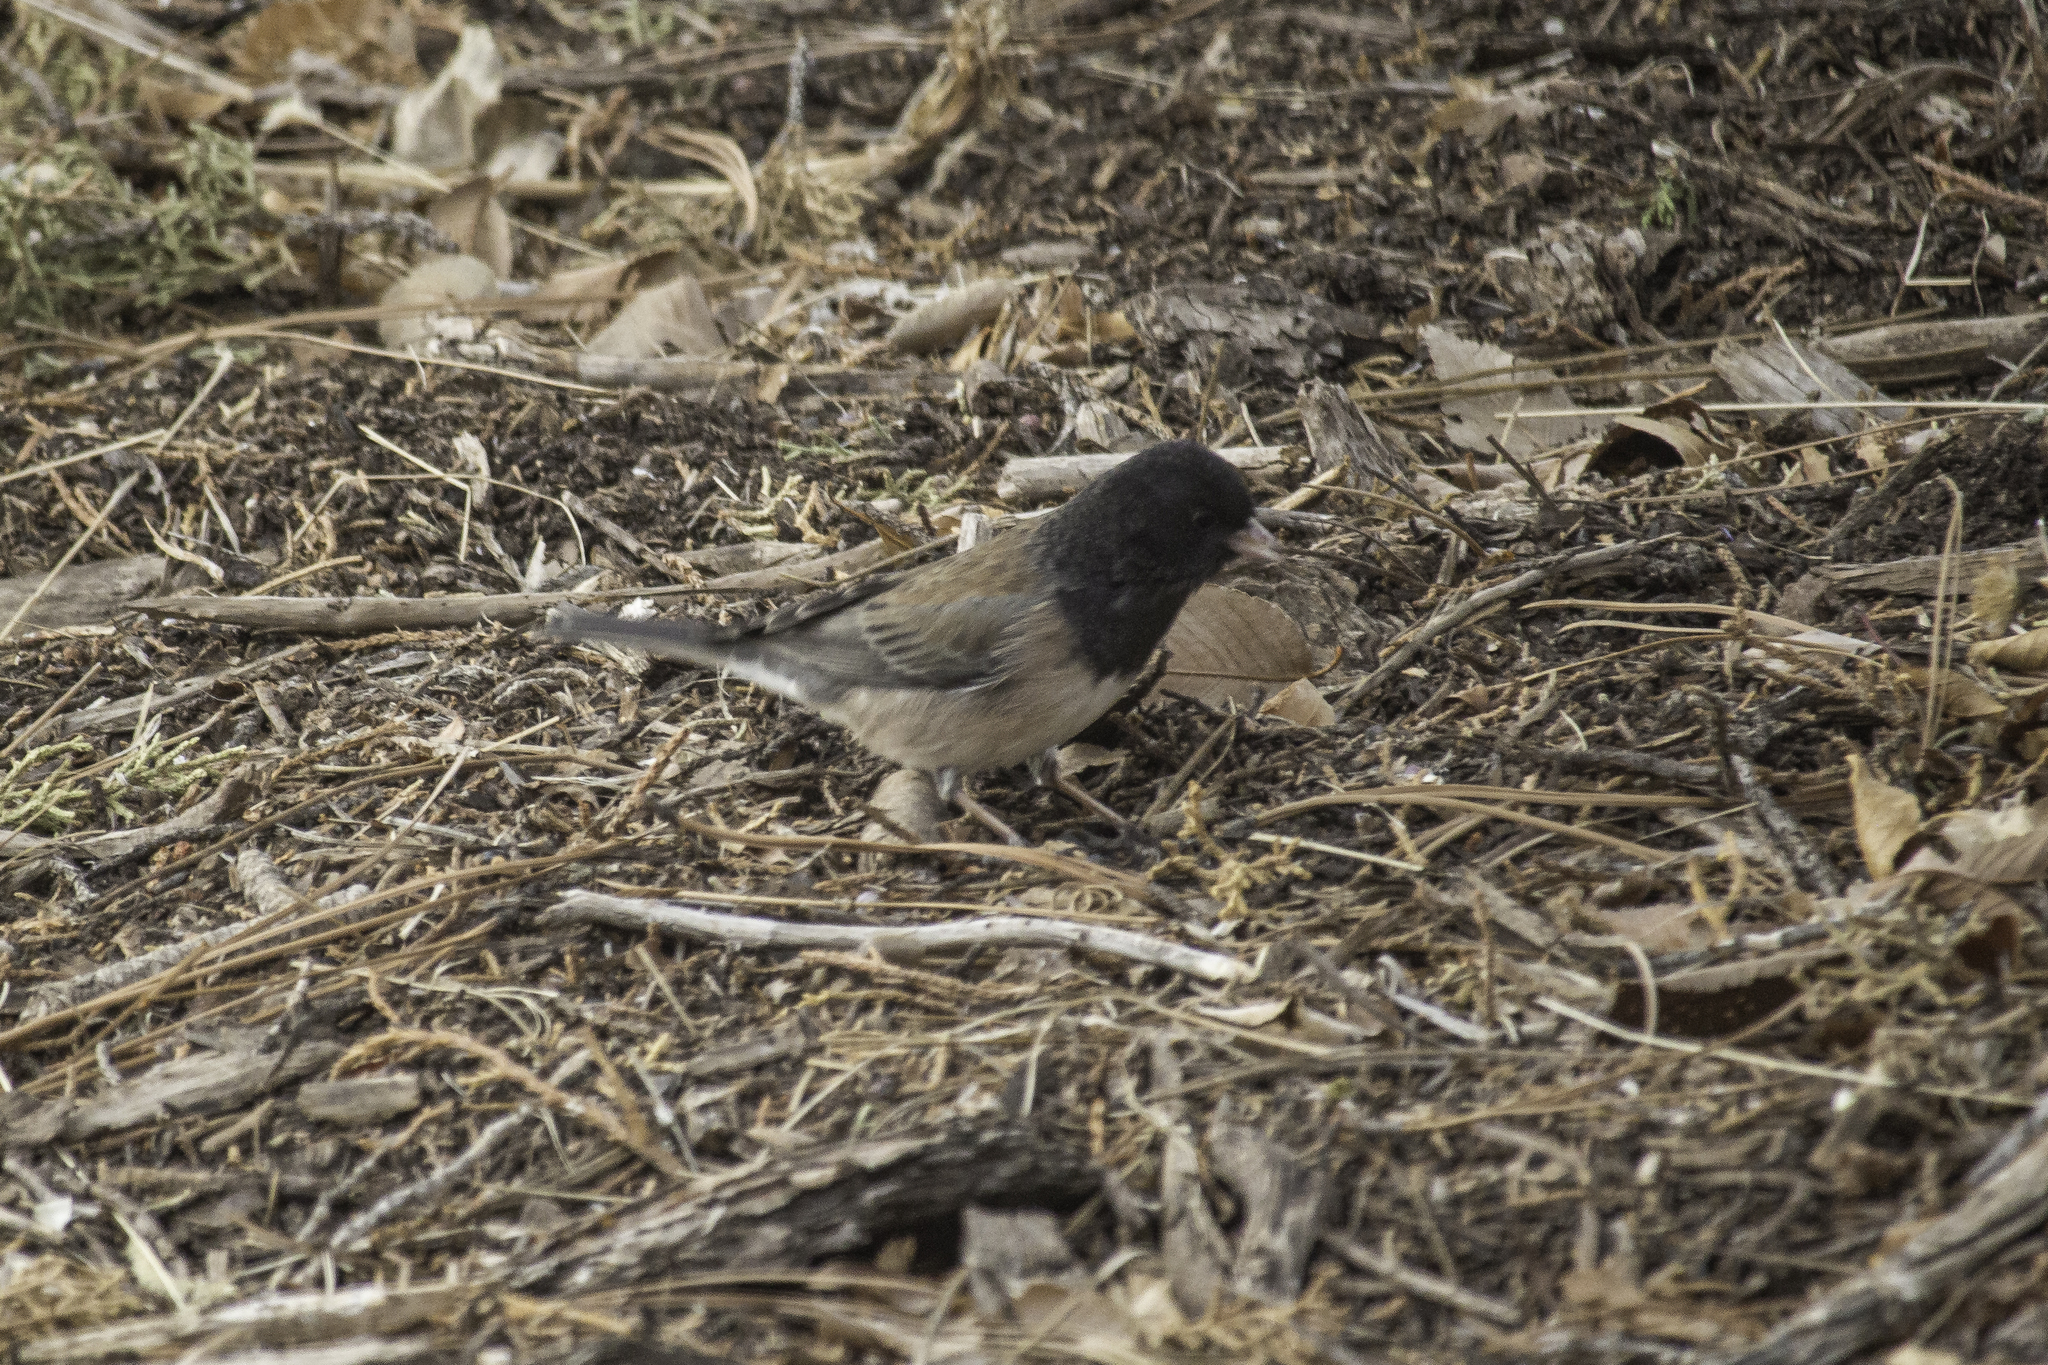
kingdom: Animalia
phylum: Chordata
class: Aves
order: Passeriformes
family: Passerellidae
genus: Junco
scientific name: Junco hyemalis
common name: Dark-eyed junco
